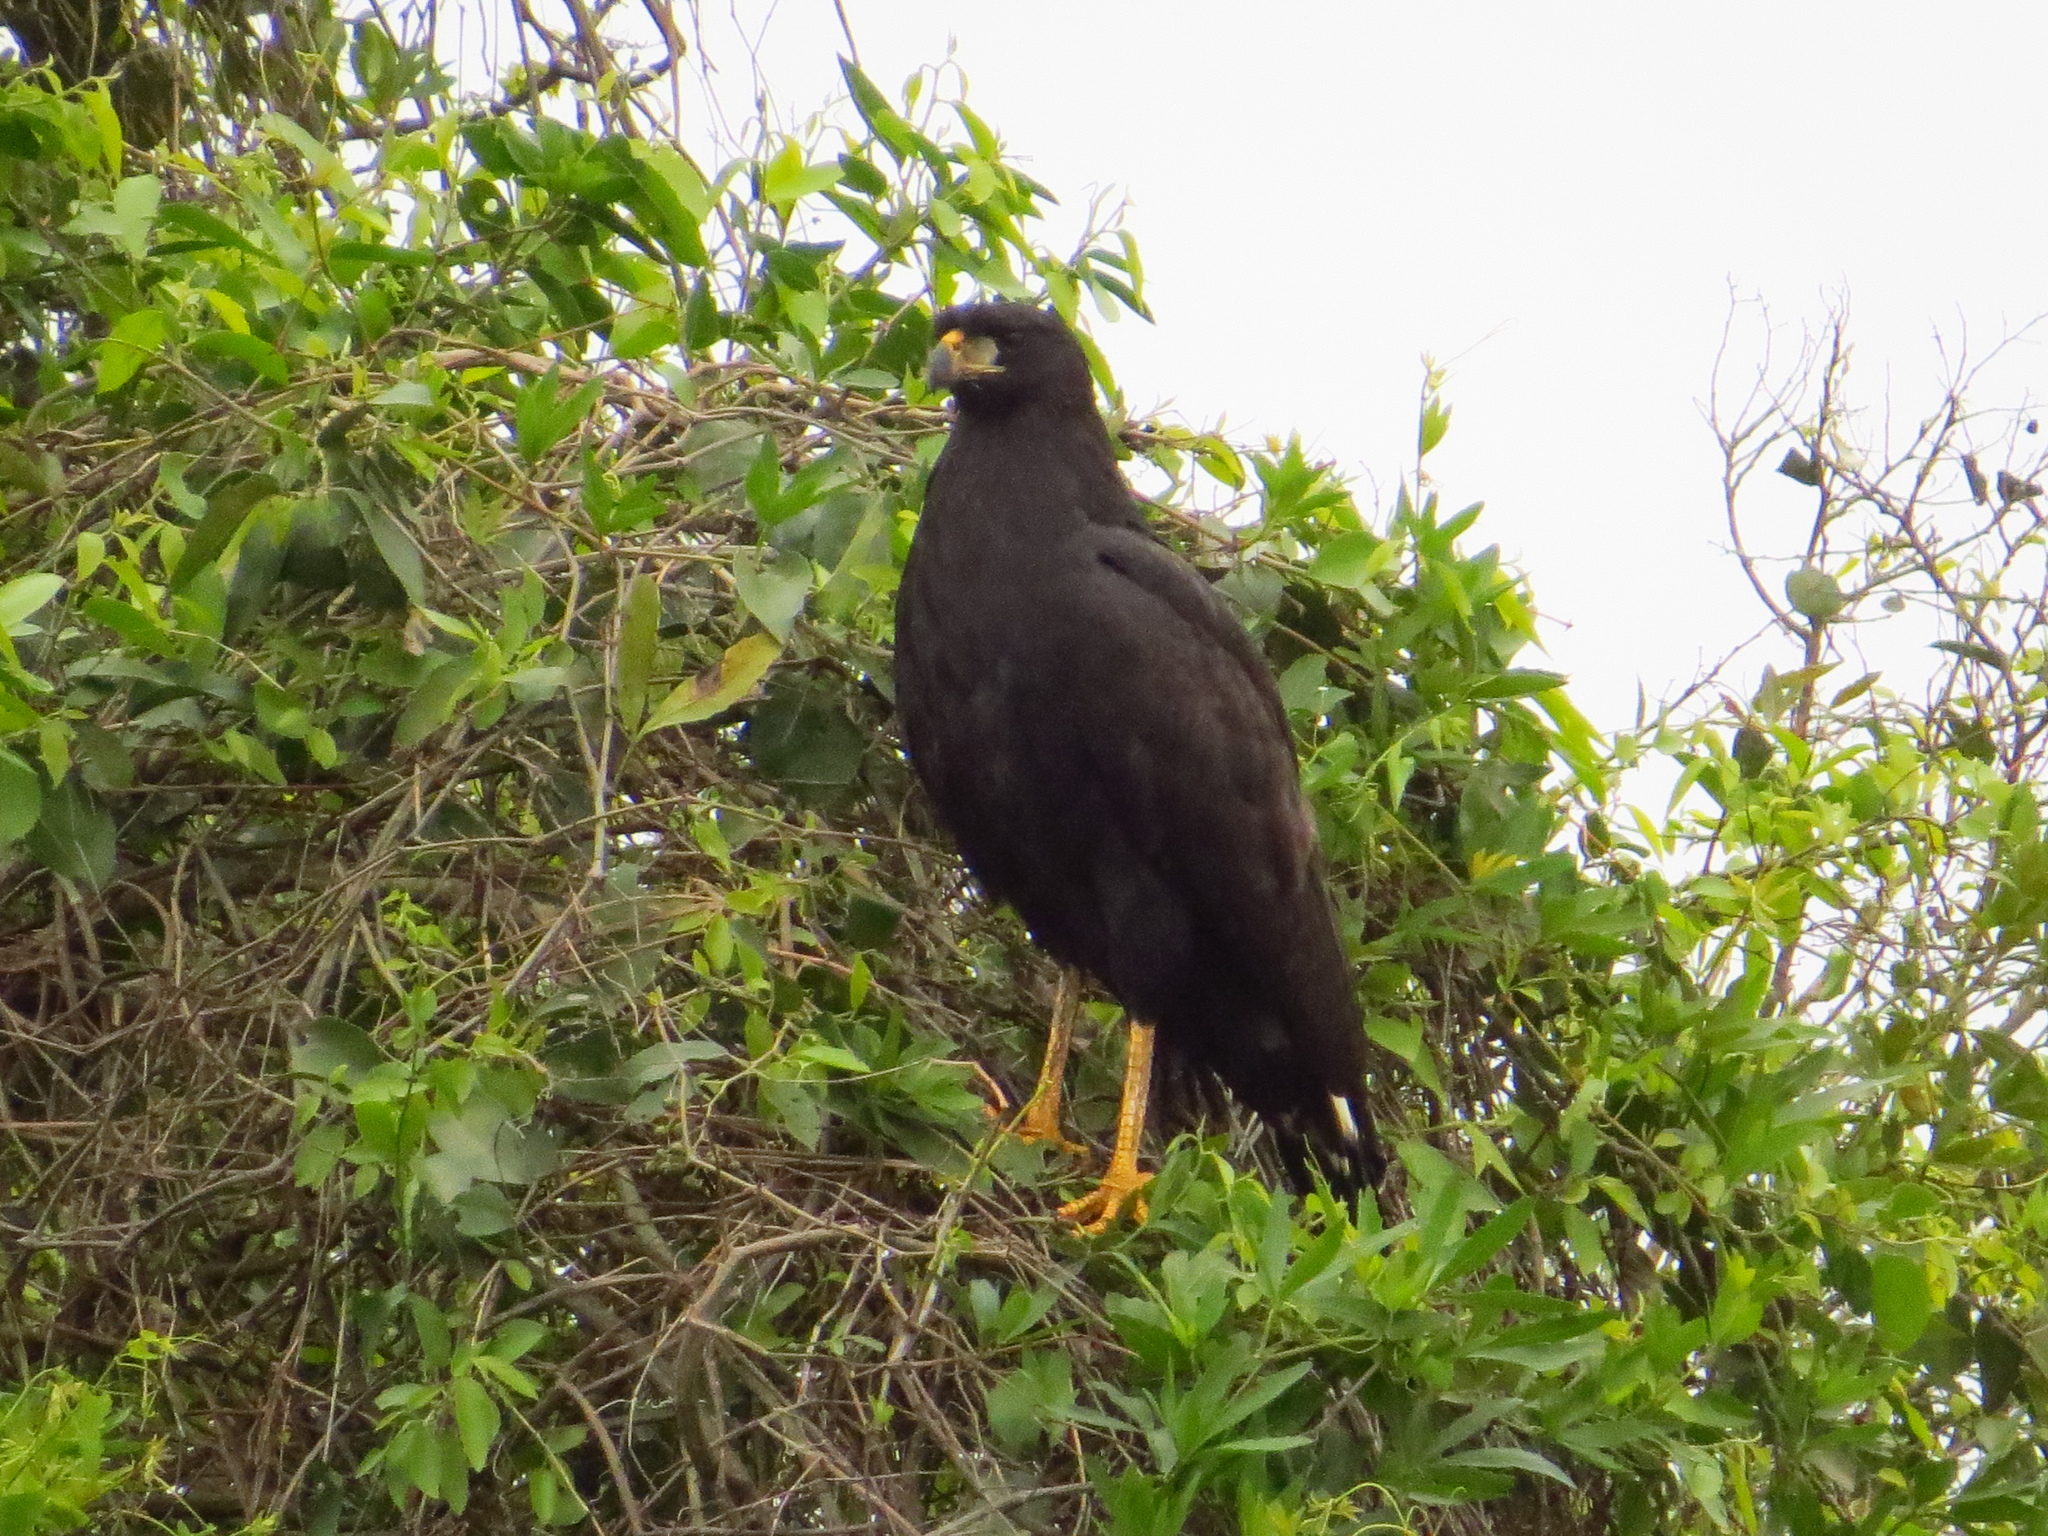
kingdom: Animalia
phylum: Chordata
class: Aves
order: Accipitriformes
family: Accipitridae
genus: Buteogallus
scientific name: Buteogallus urubitinga
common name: Great black hawk
